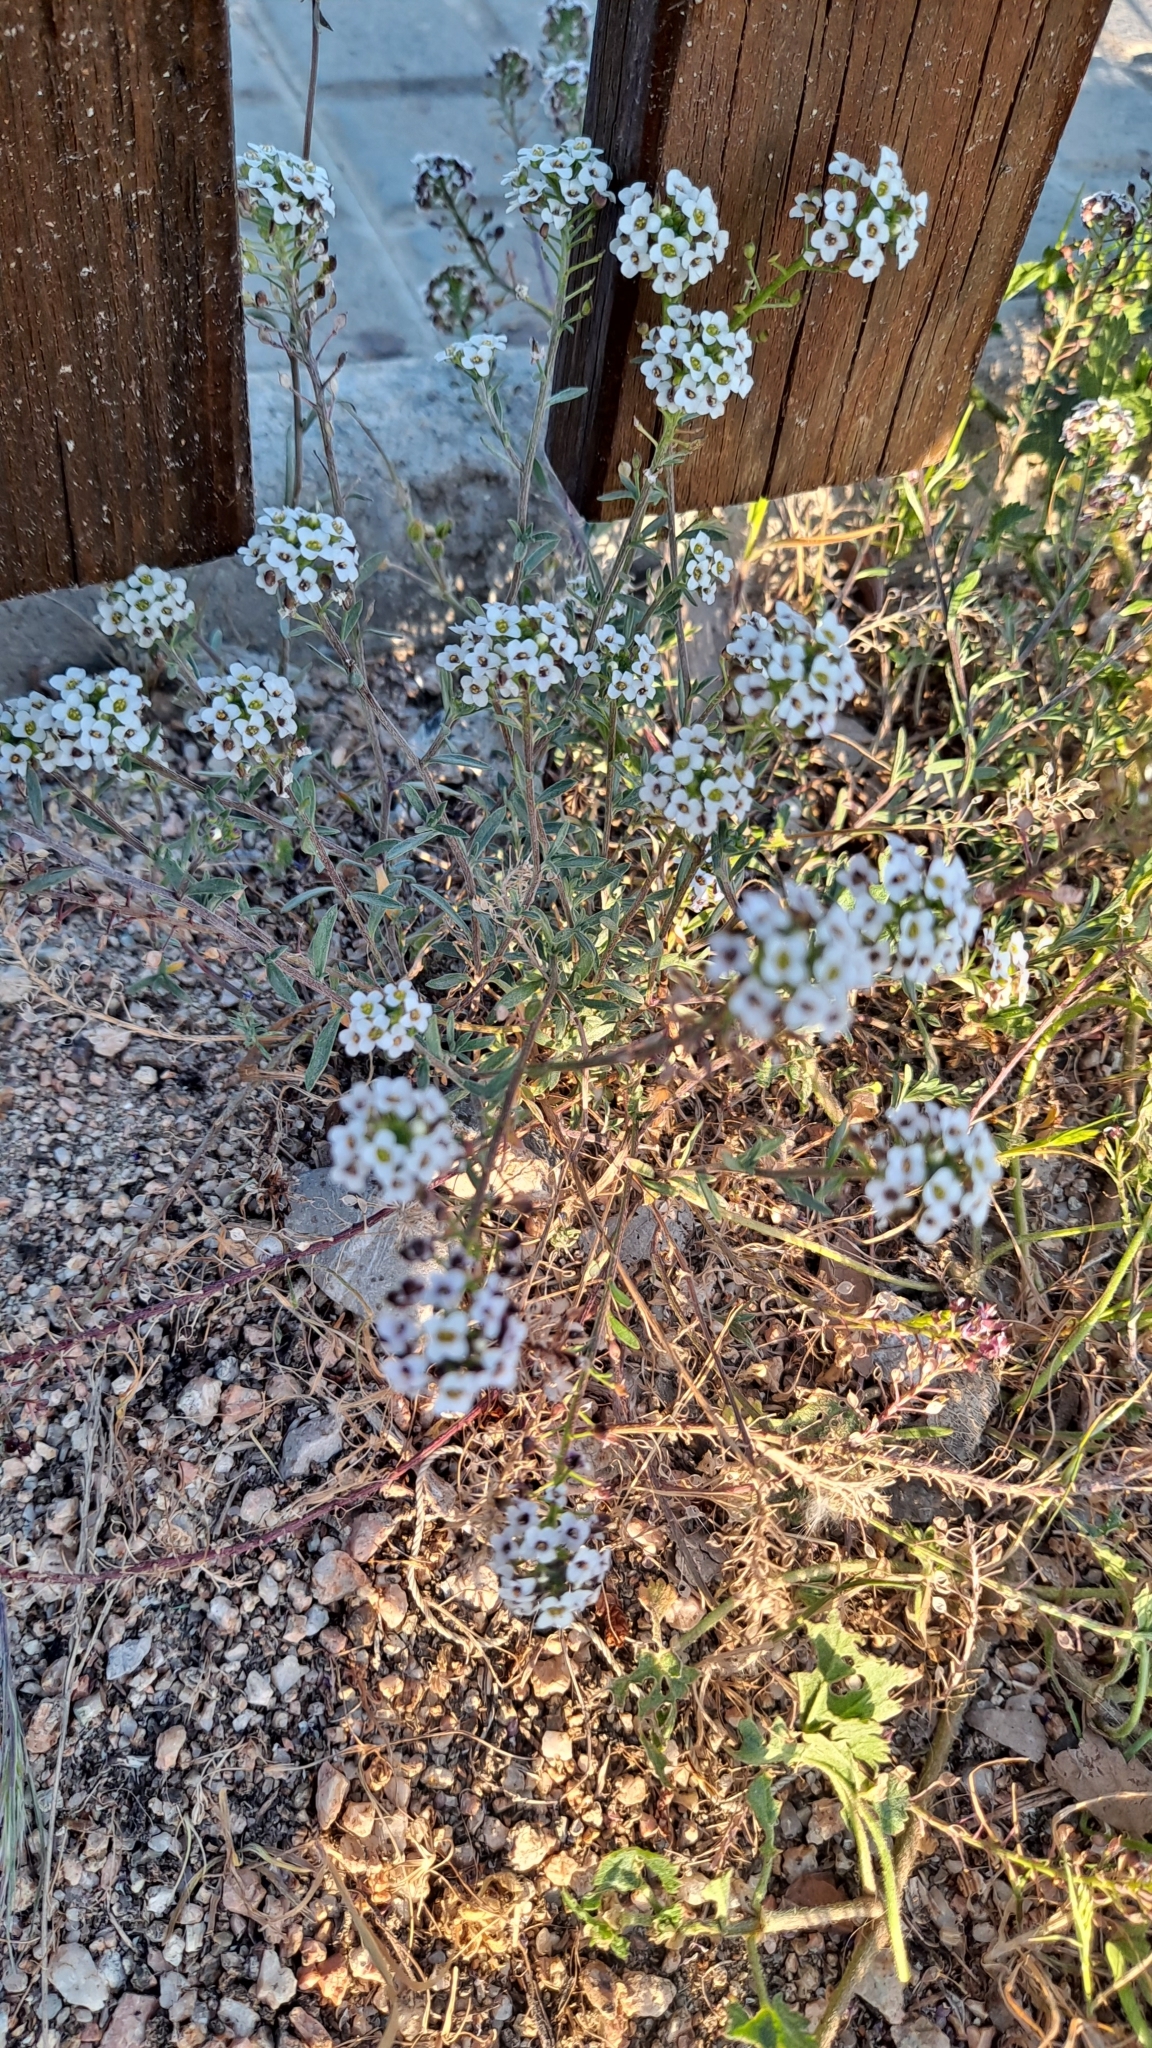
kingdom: Plantae
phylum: Tracheophyta
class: Magnoliopsida
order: Brassicales
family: Brassicaceae
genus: Lobularia
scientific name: Lobularia maritima
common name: Sweet alison
